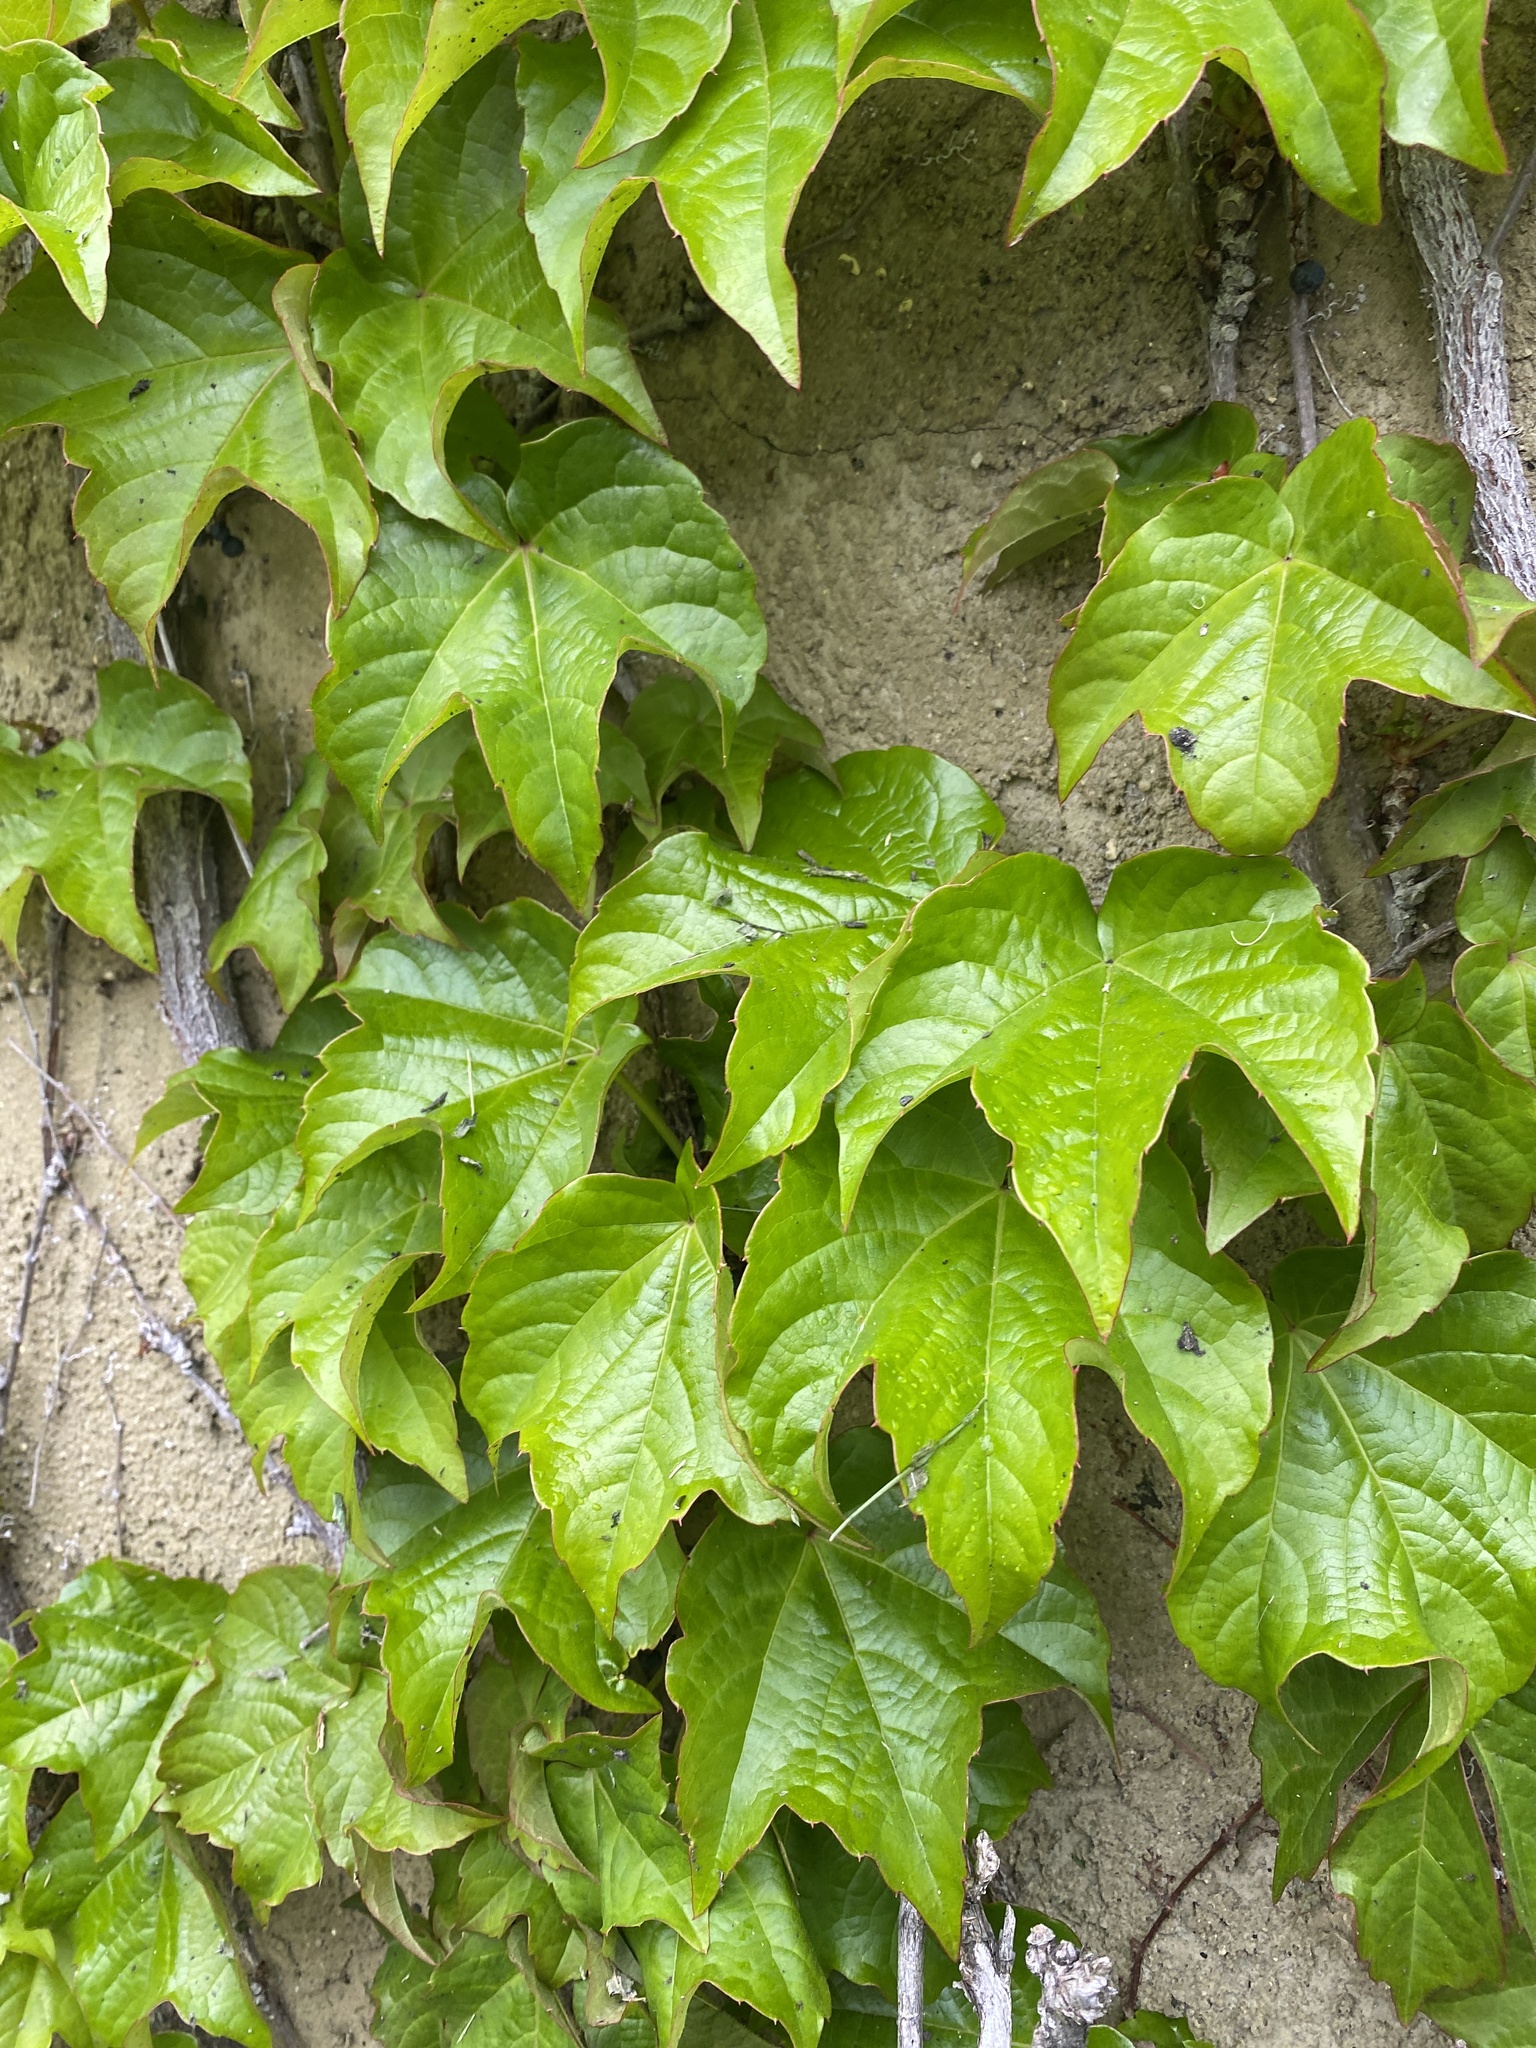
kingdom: Plantae
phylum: Tracheophyta
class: Magnoliopsida
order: Vitales
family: Vitaceae
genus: Parthenocissus
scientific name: Parthenocissus tricuspidata
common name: Boston ivy
